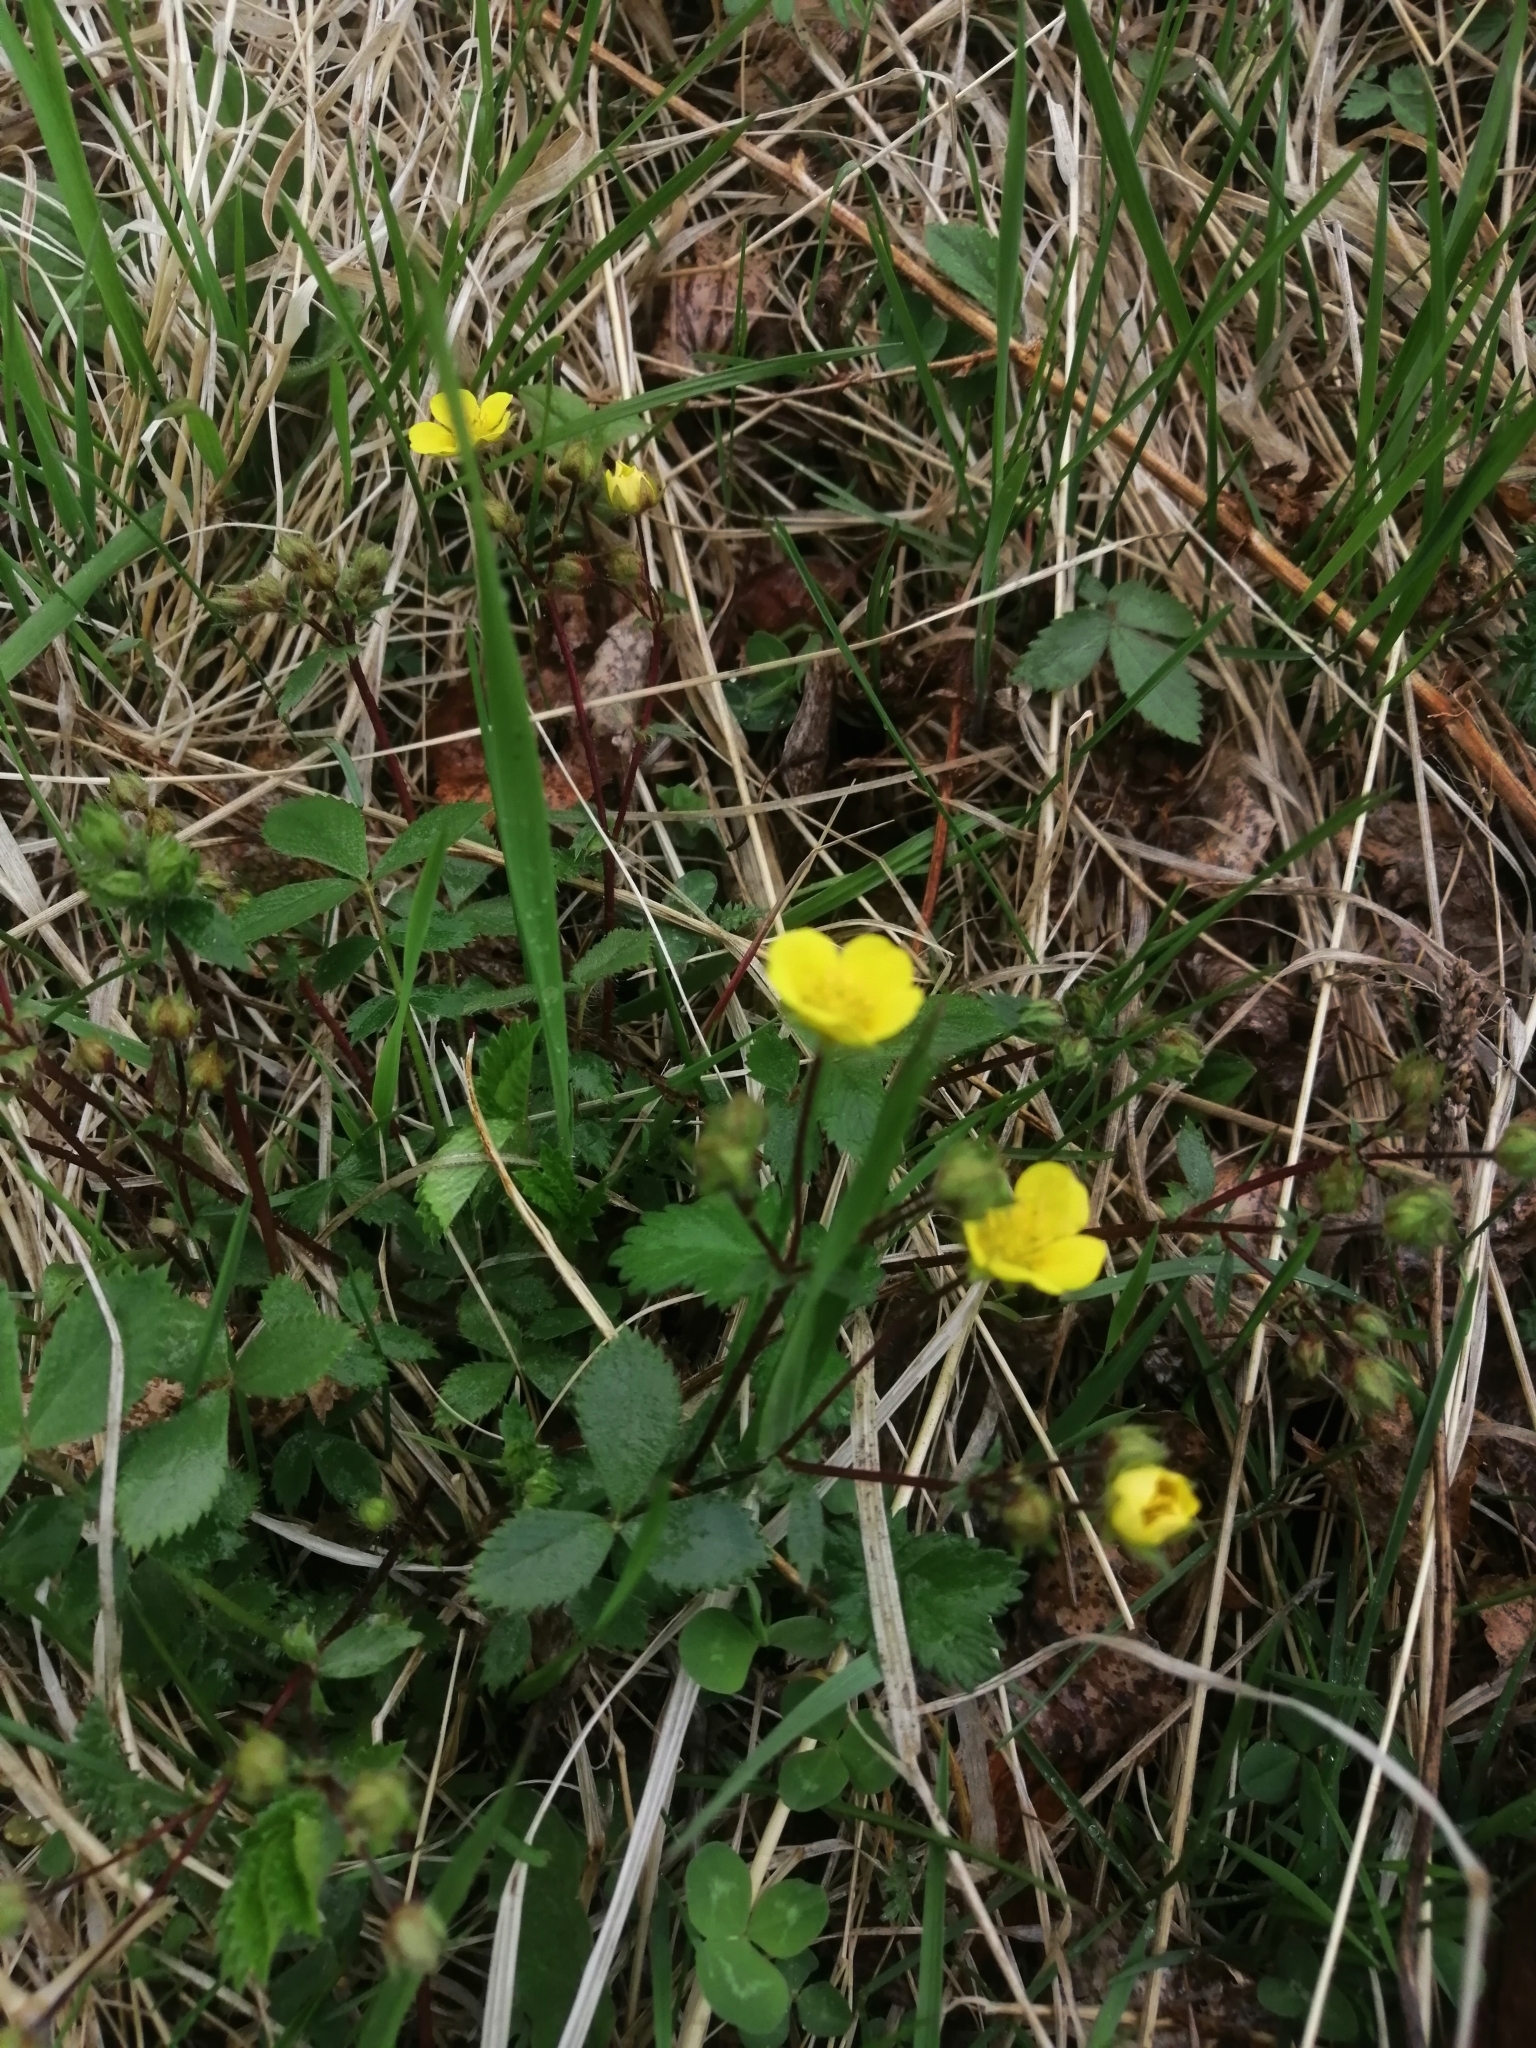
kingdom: Plantae
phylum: Tracheophyta
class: Magnoliopsida
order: Rosales
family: Rosaceae
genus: Potentilla
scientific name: Potentilla fragarioides
